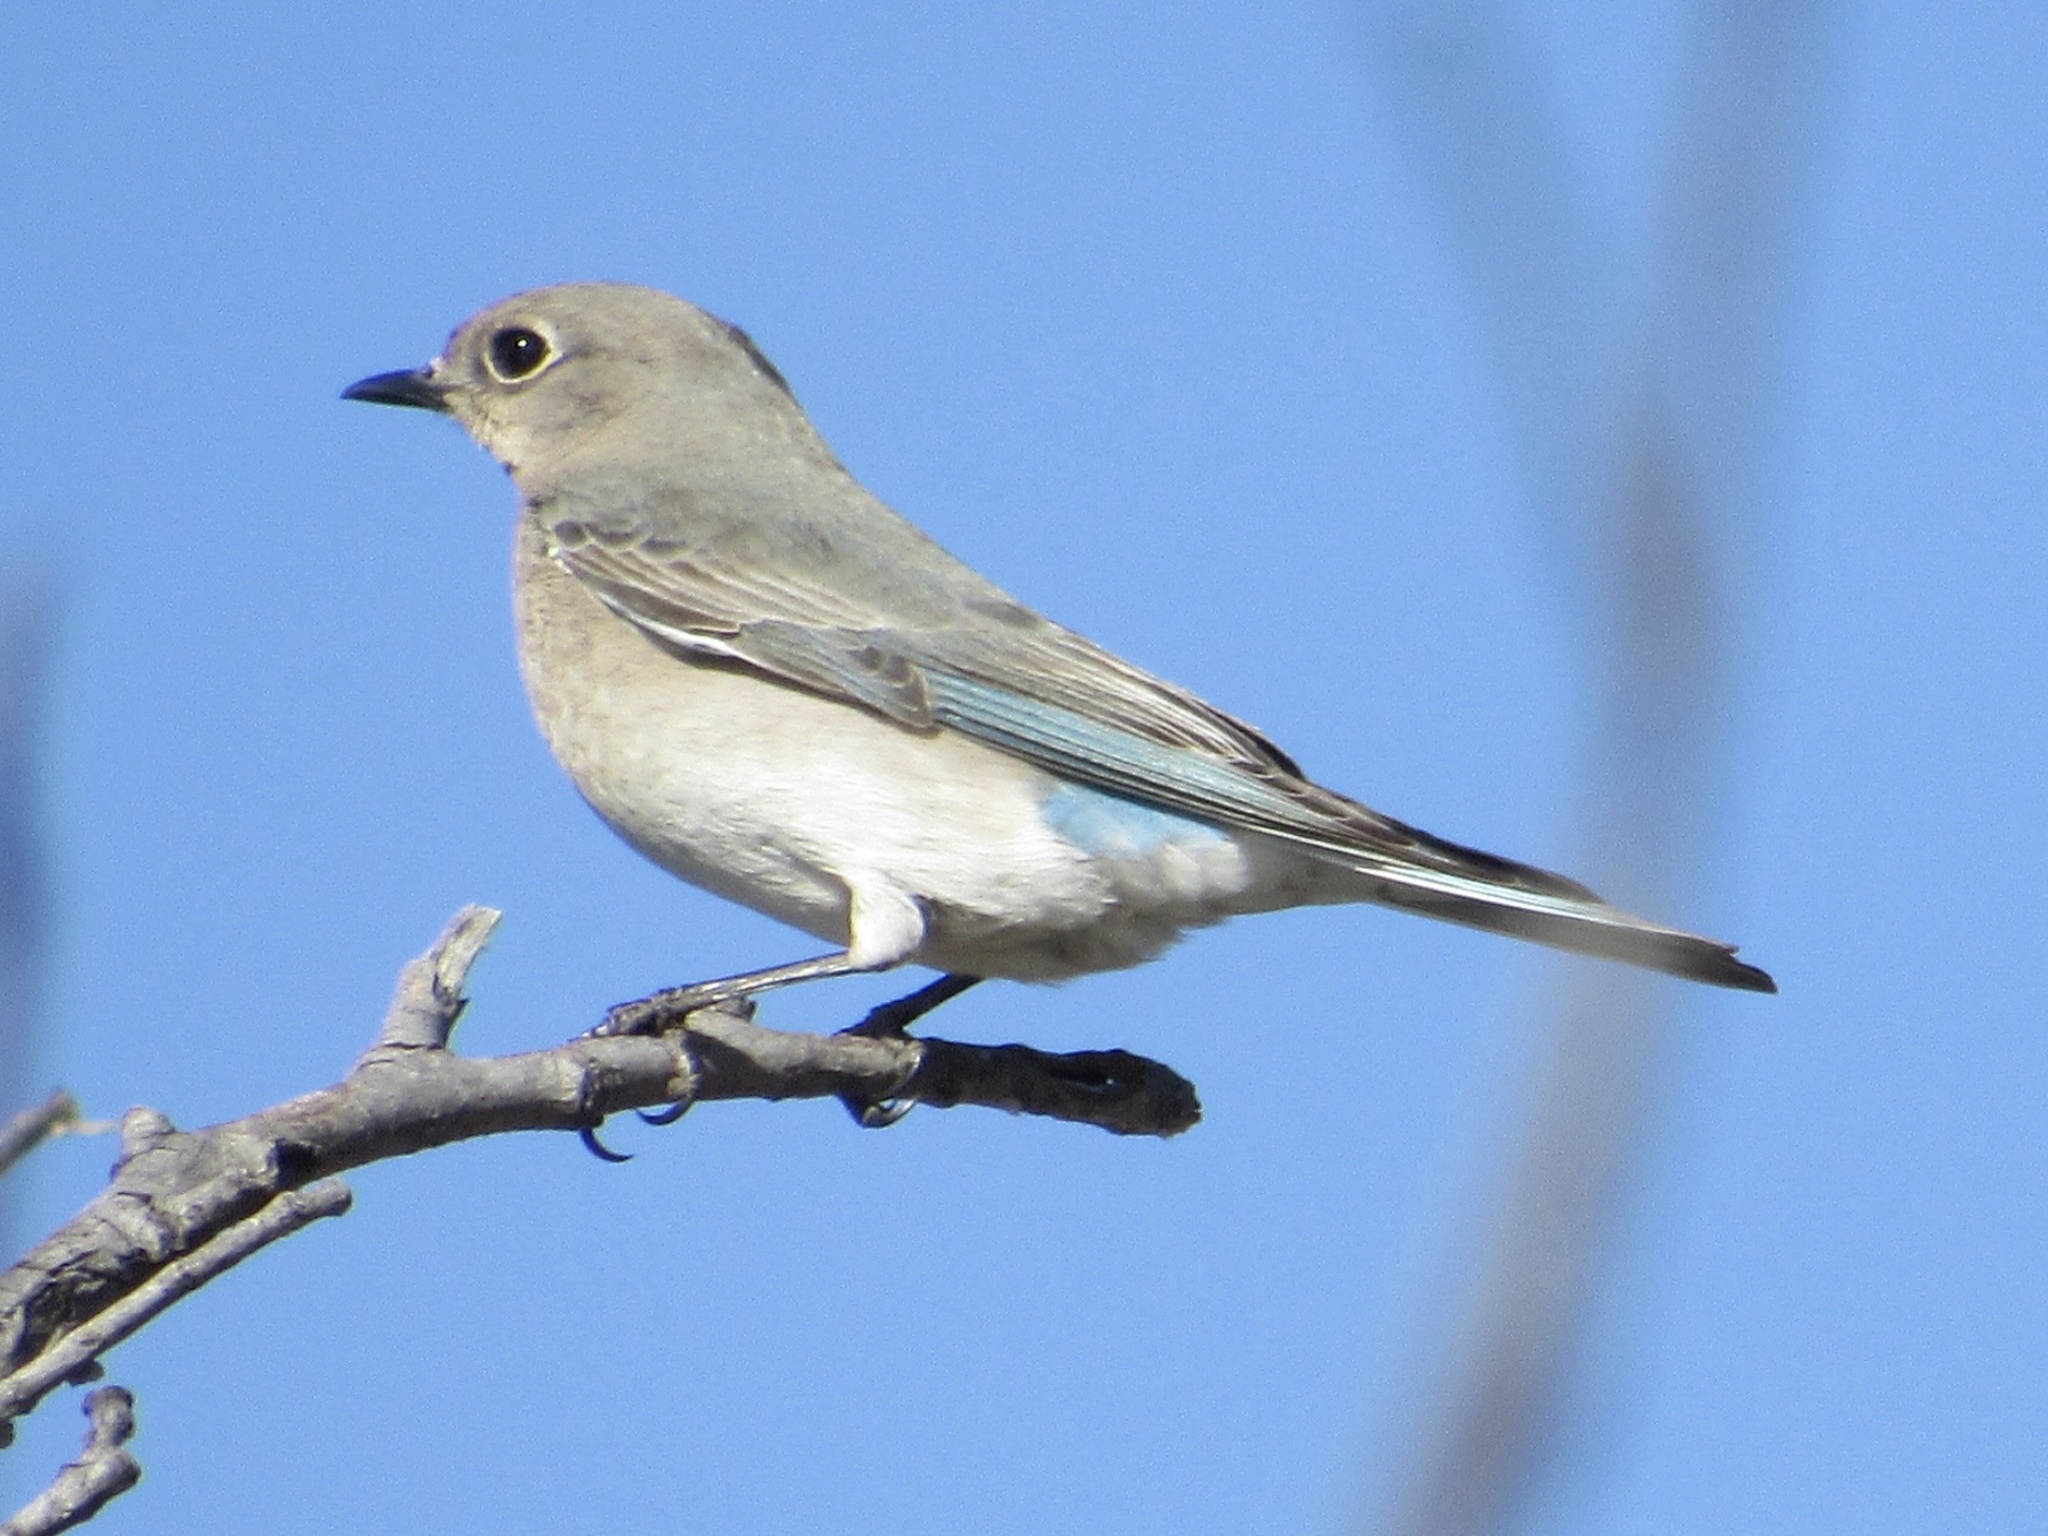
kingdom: Animalia
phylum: Chordata
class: Aves
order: Passeriformes
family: Turdidae
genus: Sialia
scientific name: Sialia currucoides
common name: Mountain bluebird
